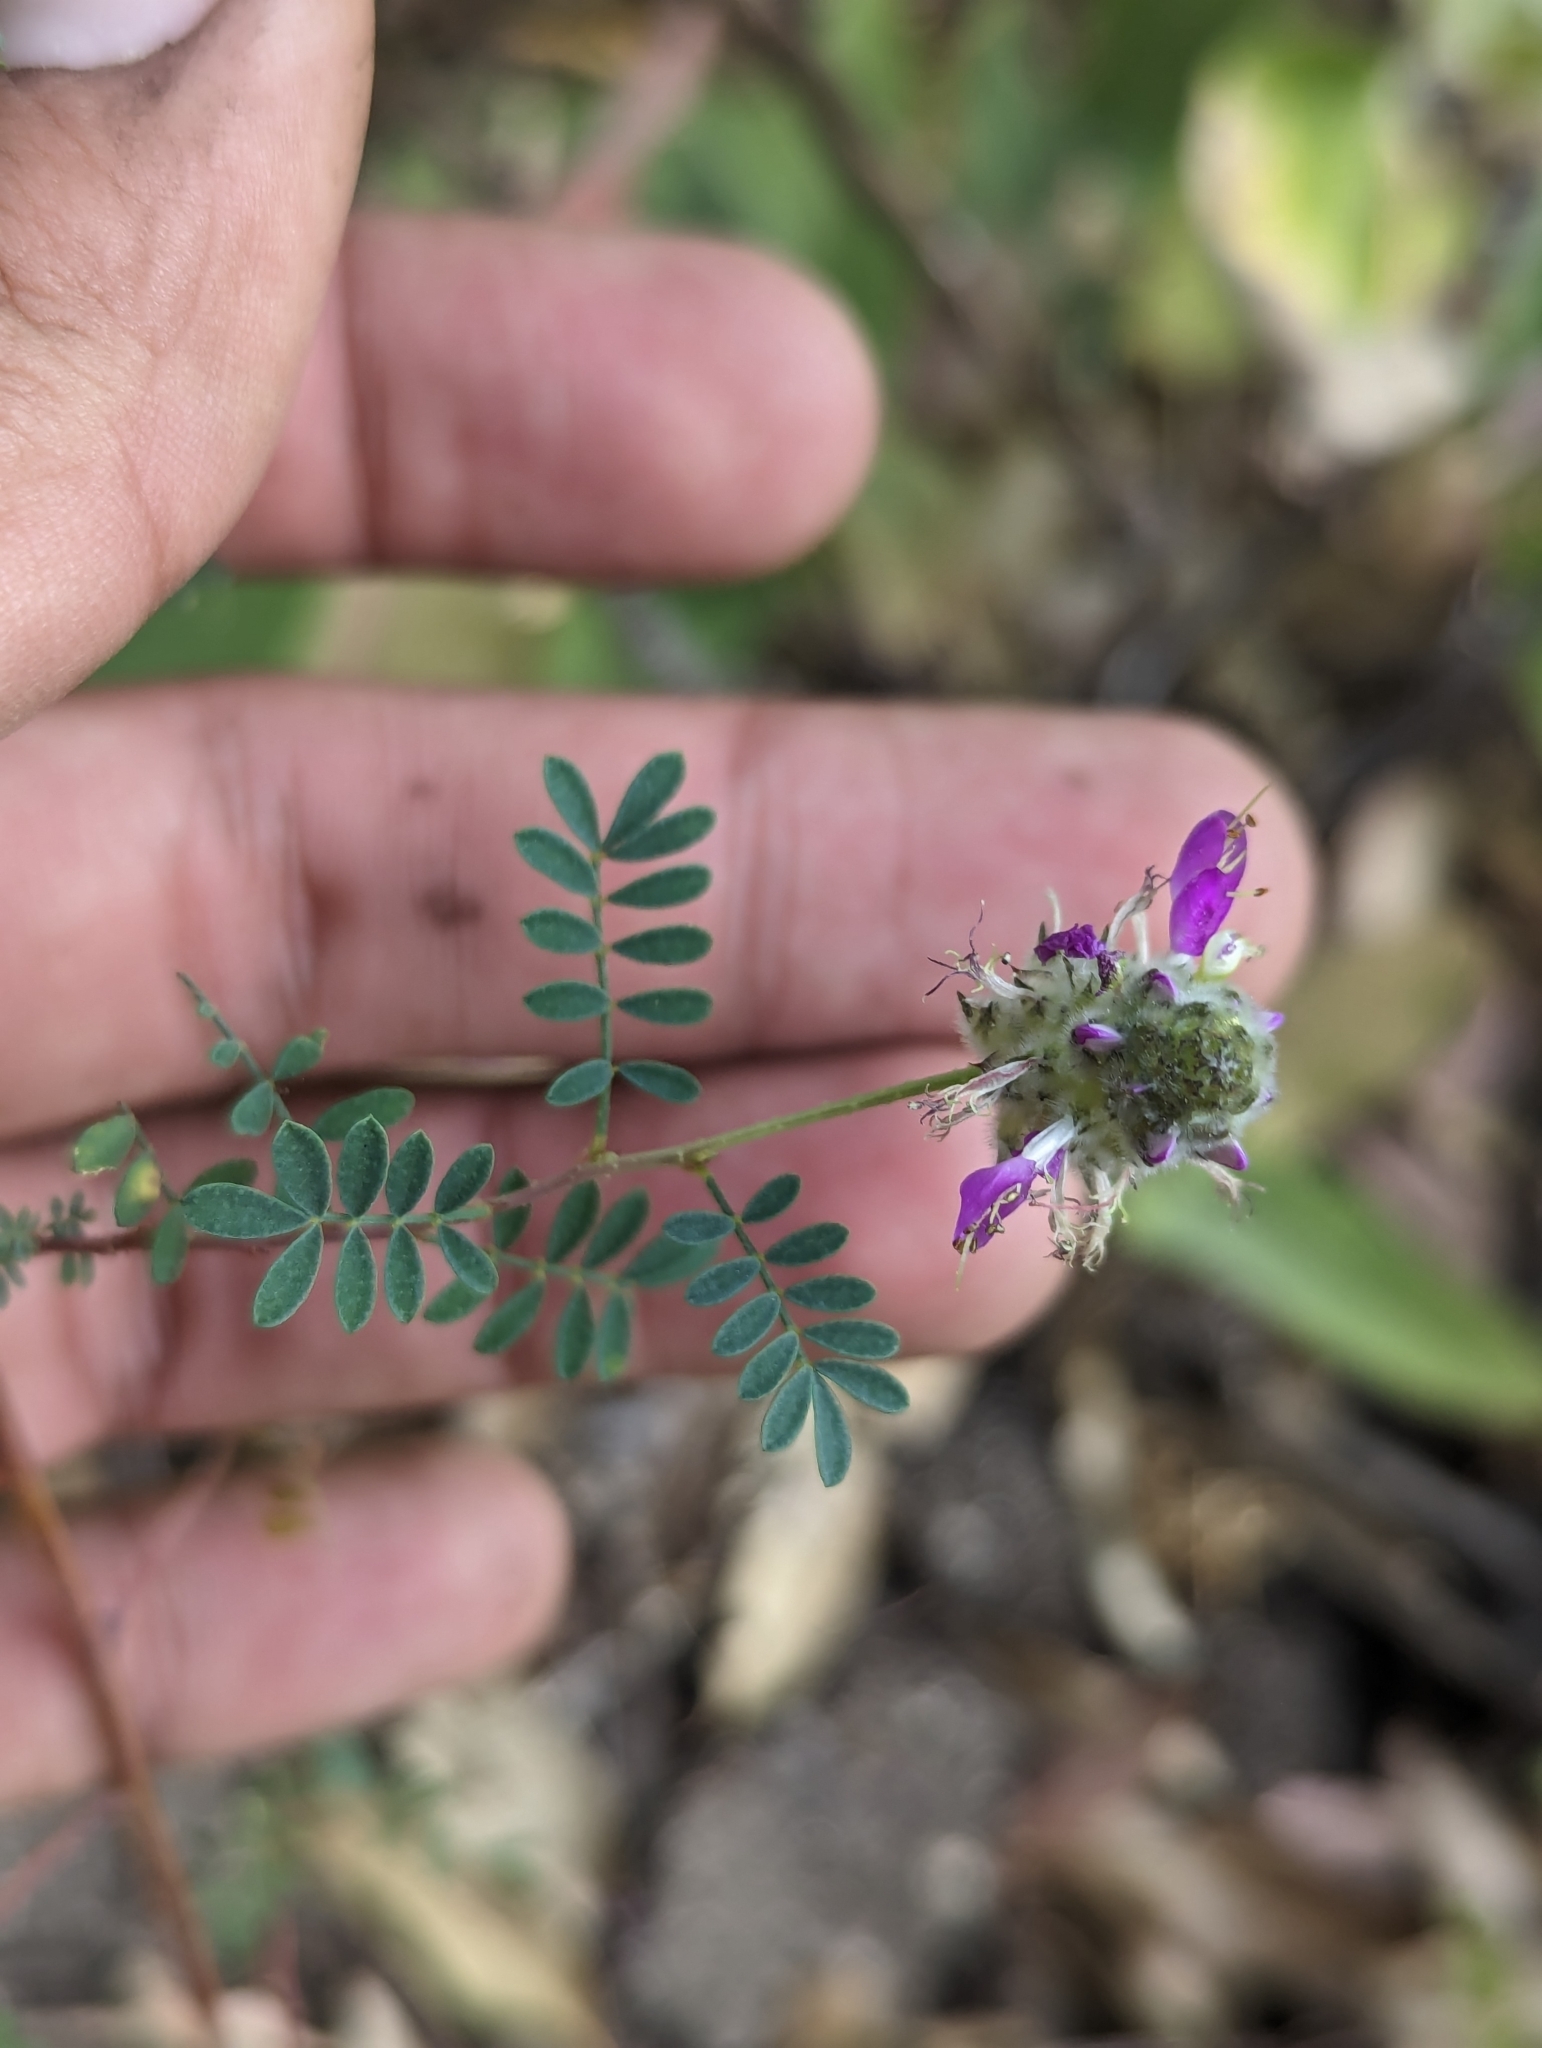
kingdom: Plantae
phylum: Tracheophyta
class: Magnoliopsida
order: Fabales
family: Fabaceae
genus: Dalea
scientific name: Dalea trochilina
